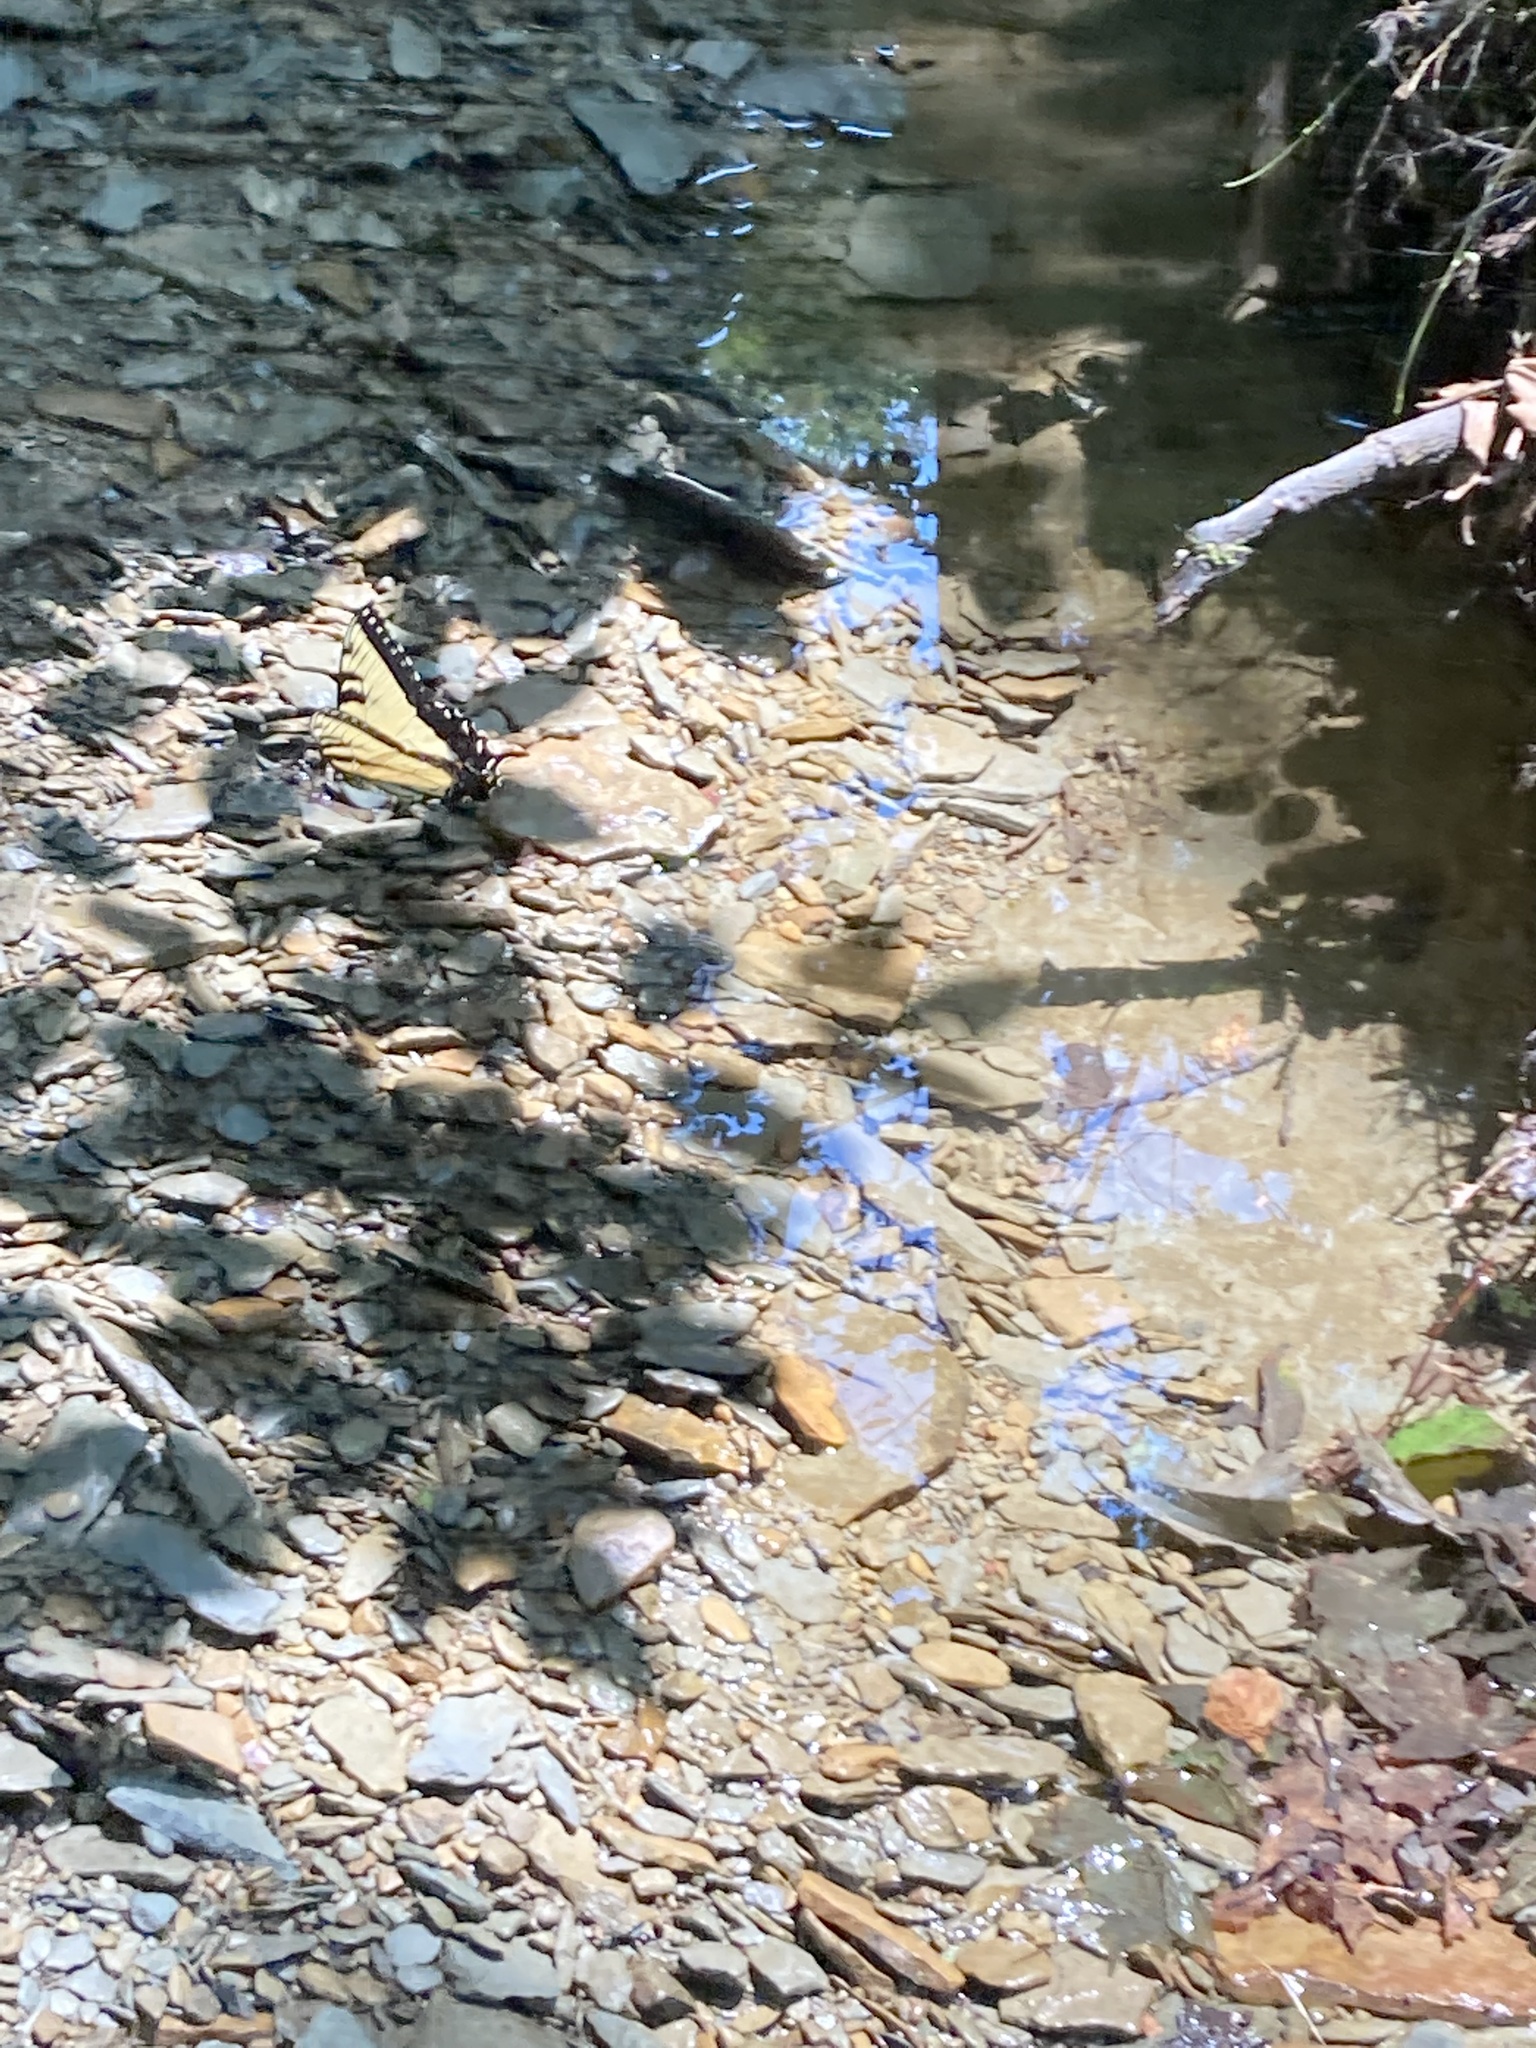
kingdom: Animalia
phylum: Arthropoda
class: Insecta
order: Lepidoptera
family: Papilionidae
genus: Papilio
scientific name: Papilio glaucus
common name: Tiger swallowtail
